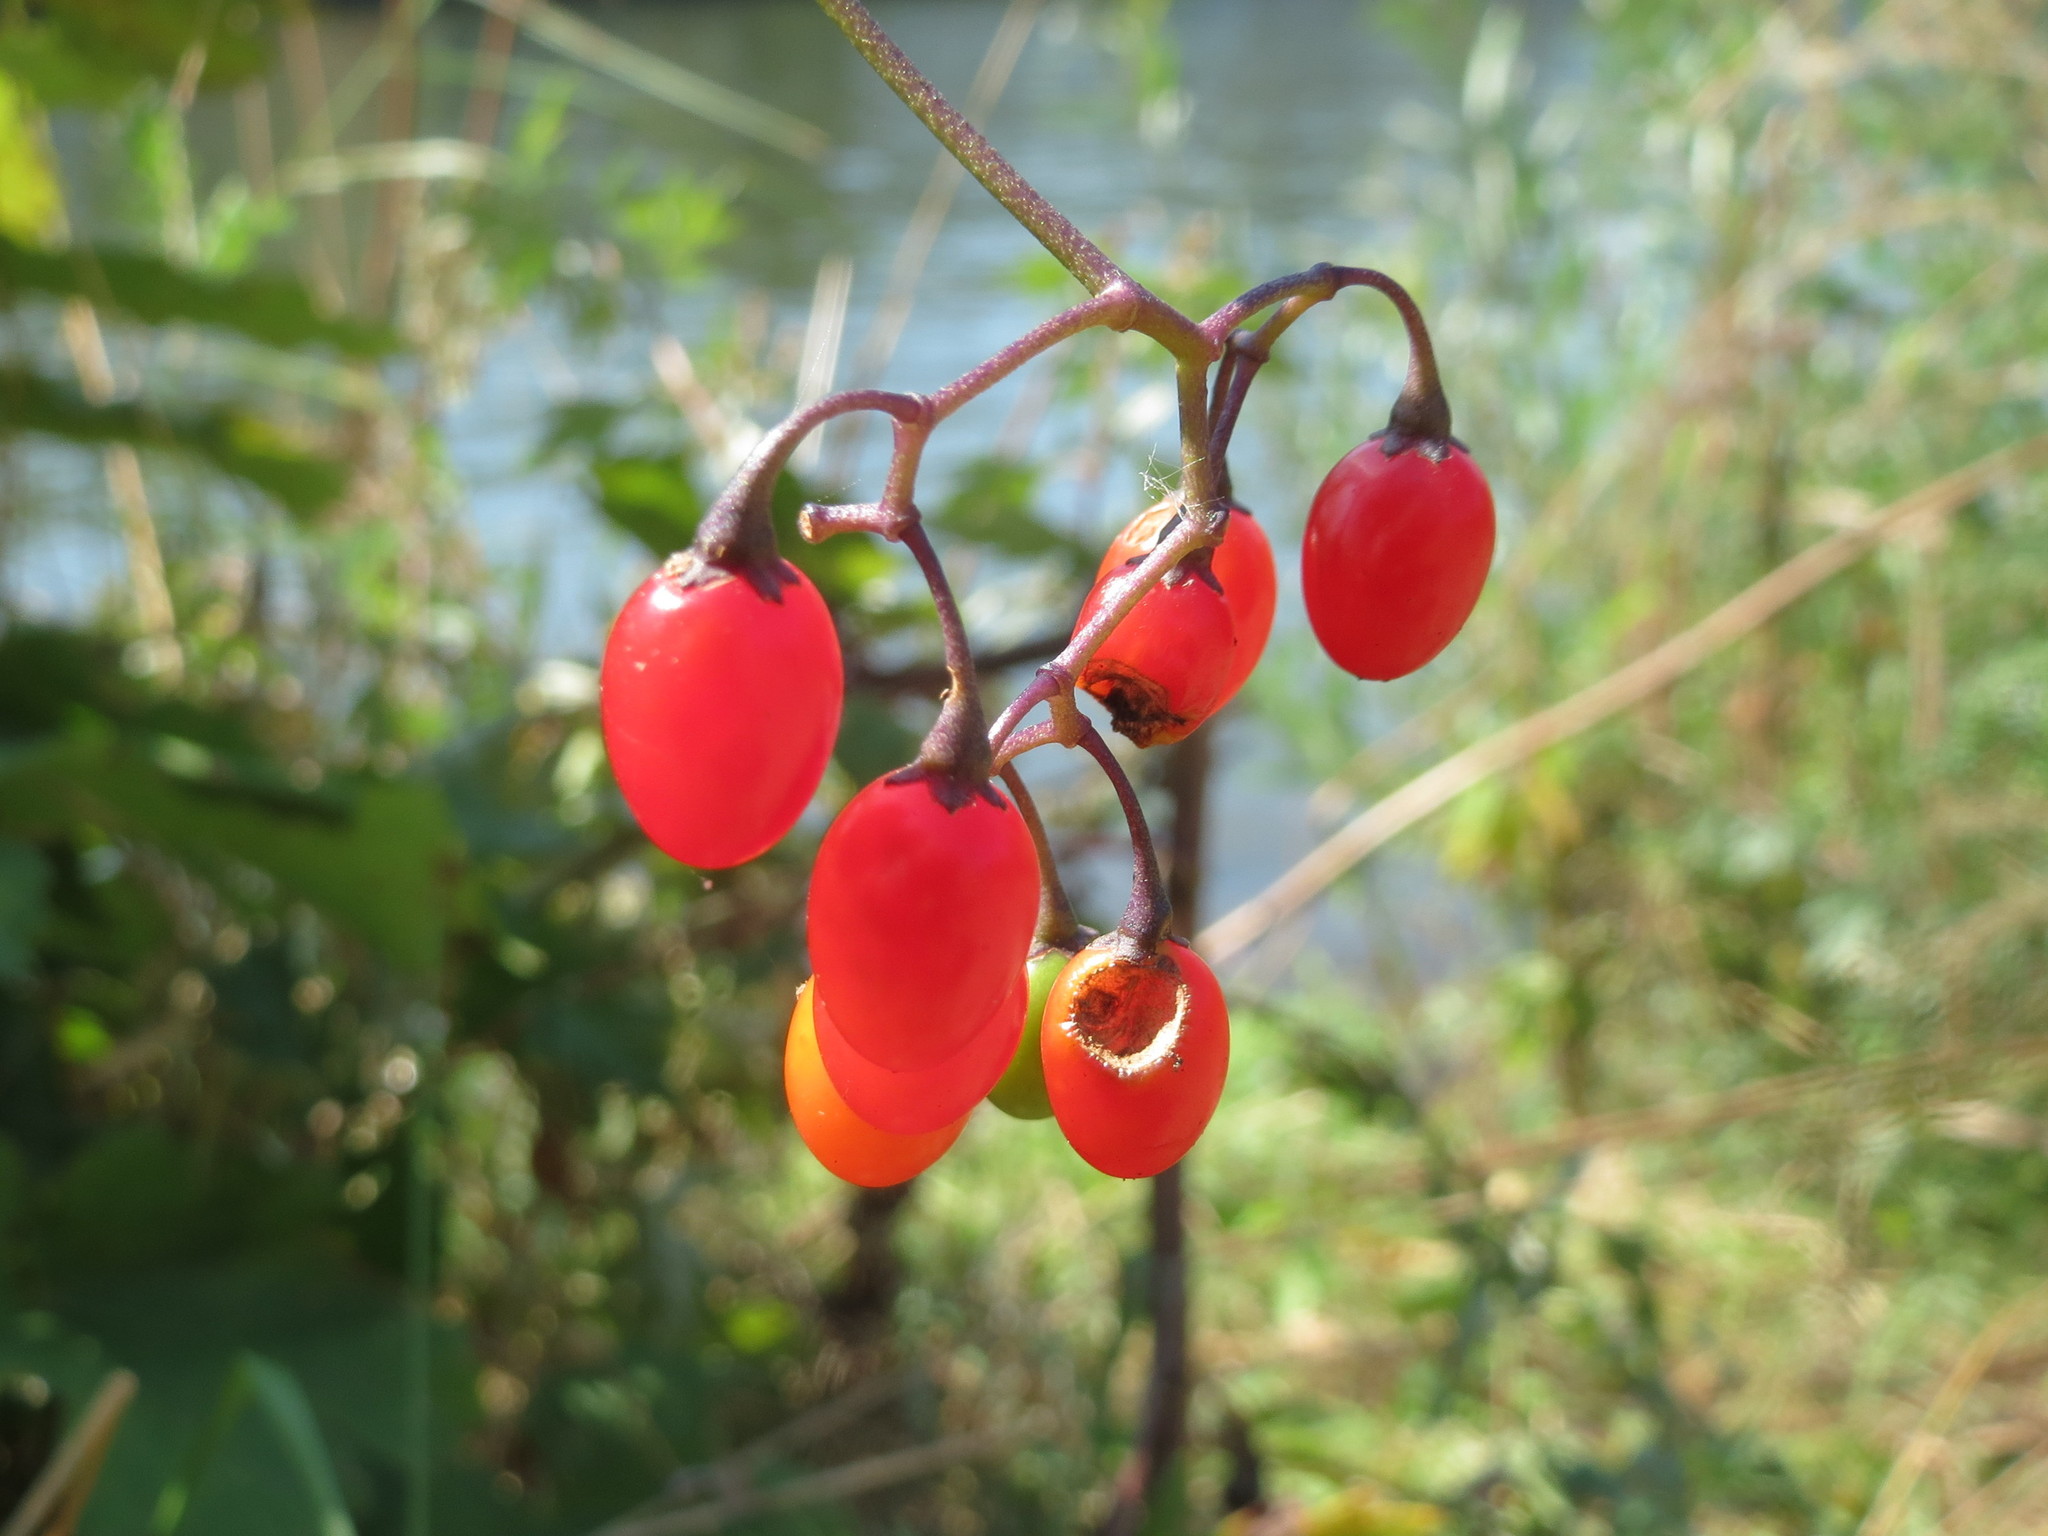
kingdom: Plantae
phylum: Tracheophyta
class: Magnoliopsida
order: Solanales
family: Solanaceae
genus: Solanum
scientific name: Solanum dulcamara
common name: Climbing nightshade
